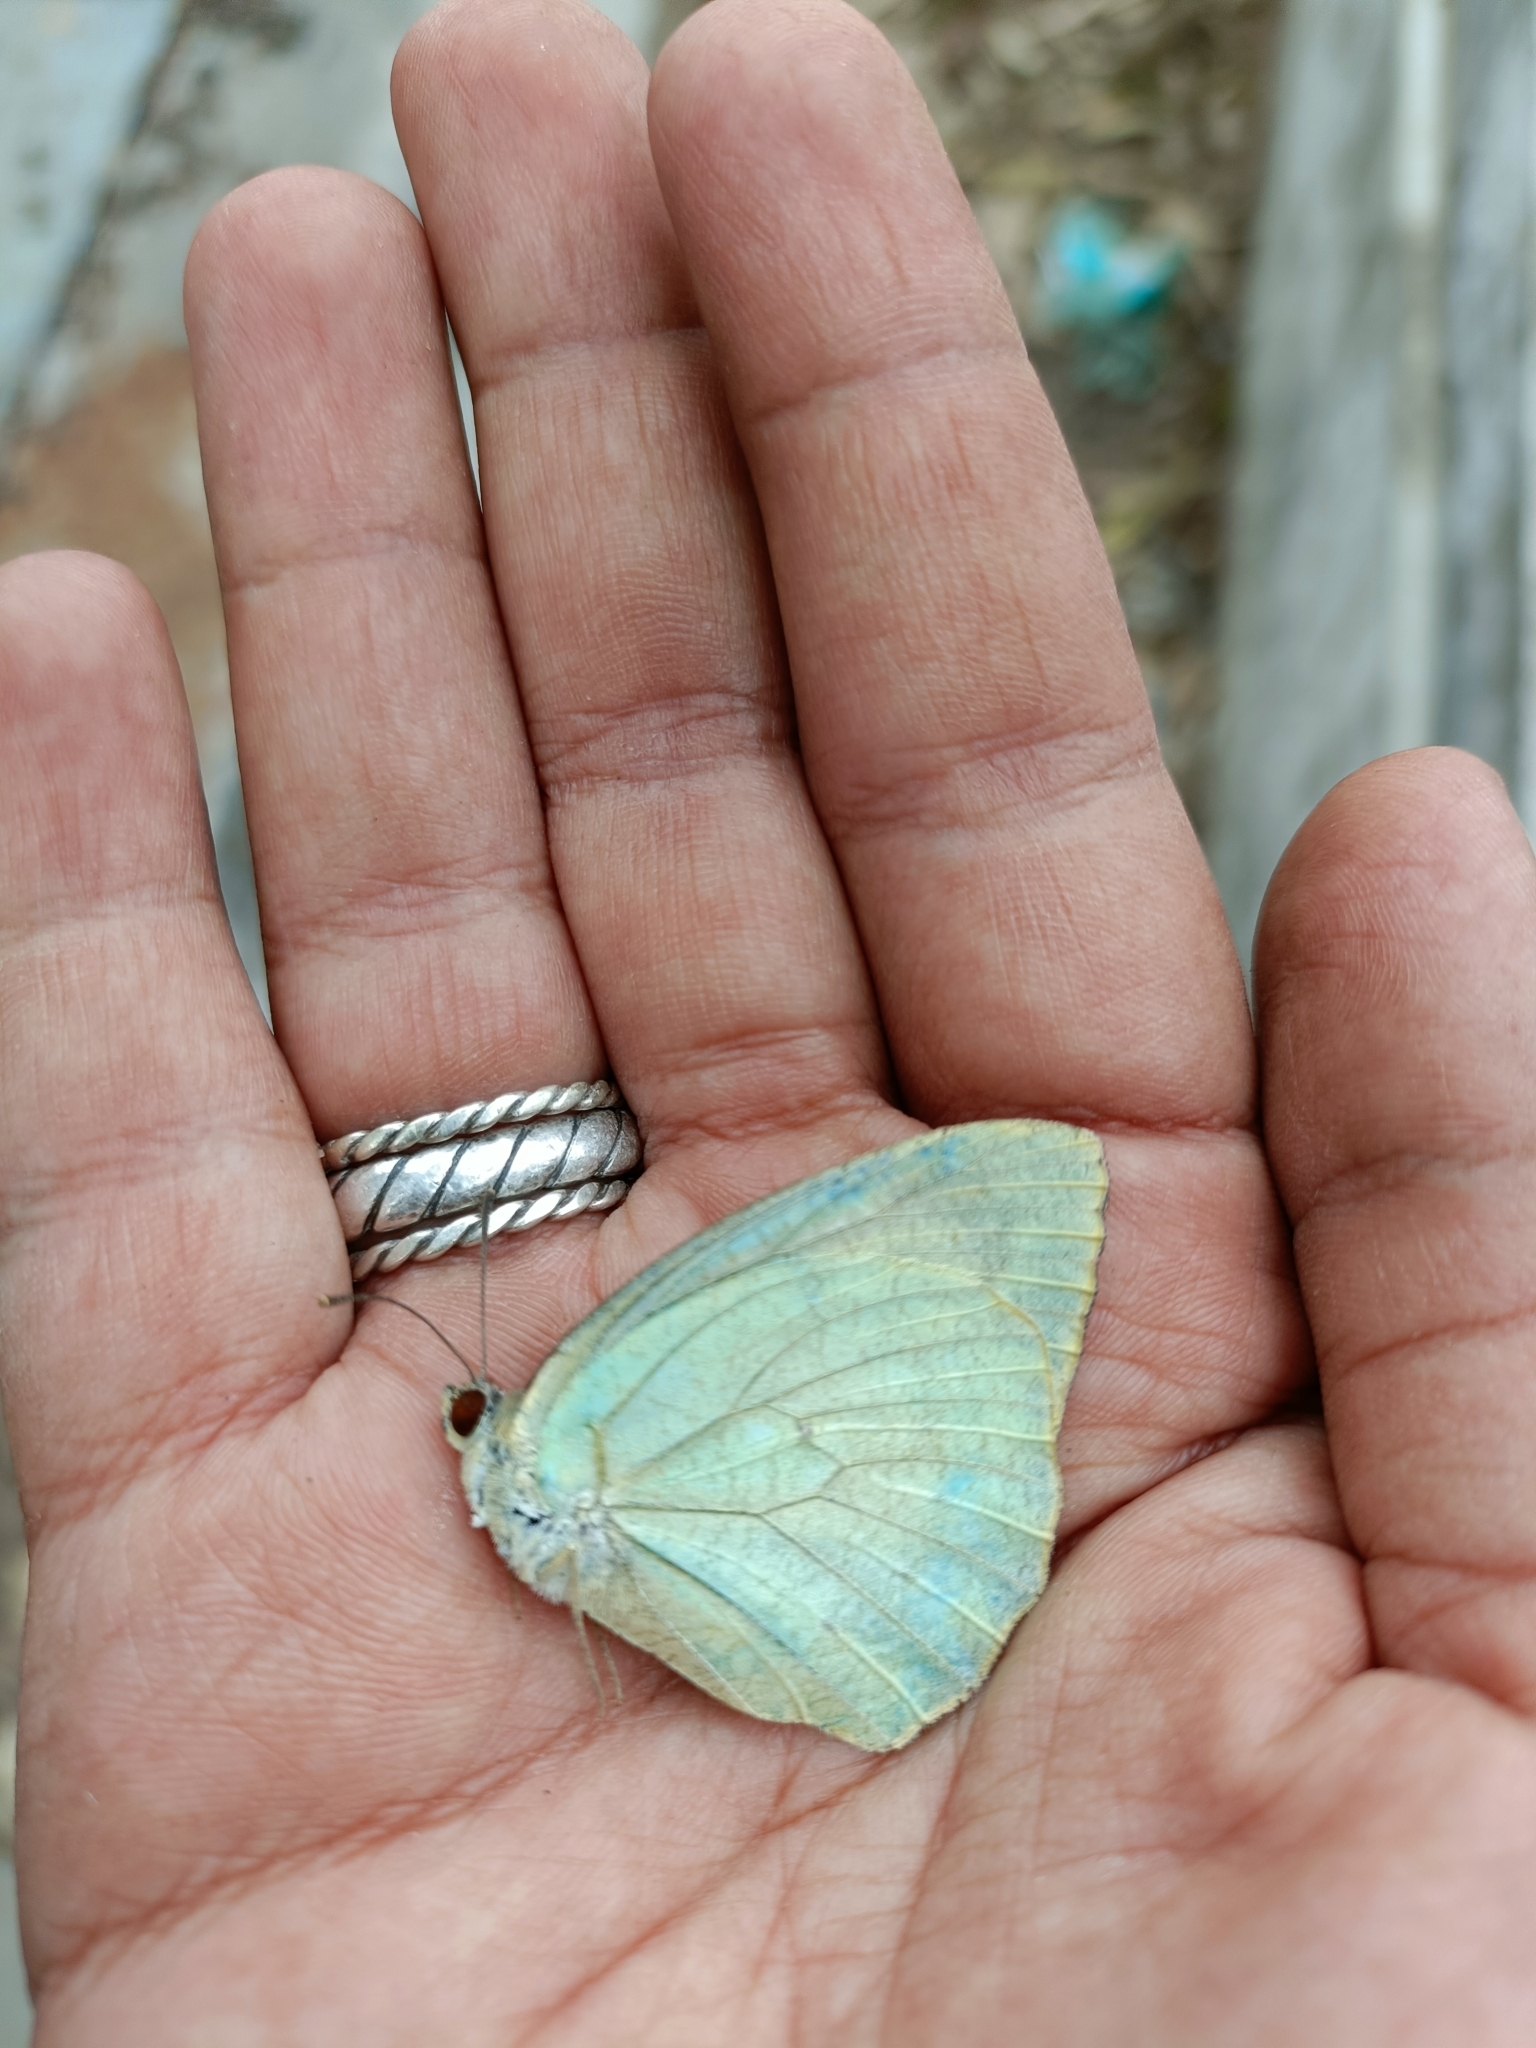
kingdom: Animalia
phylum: Arthropoda
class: Insecta
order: Lepidoptera
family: Pieridae
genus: Catopsilia
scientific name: Catopsilia pyranthe
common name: Mottled emigrant
